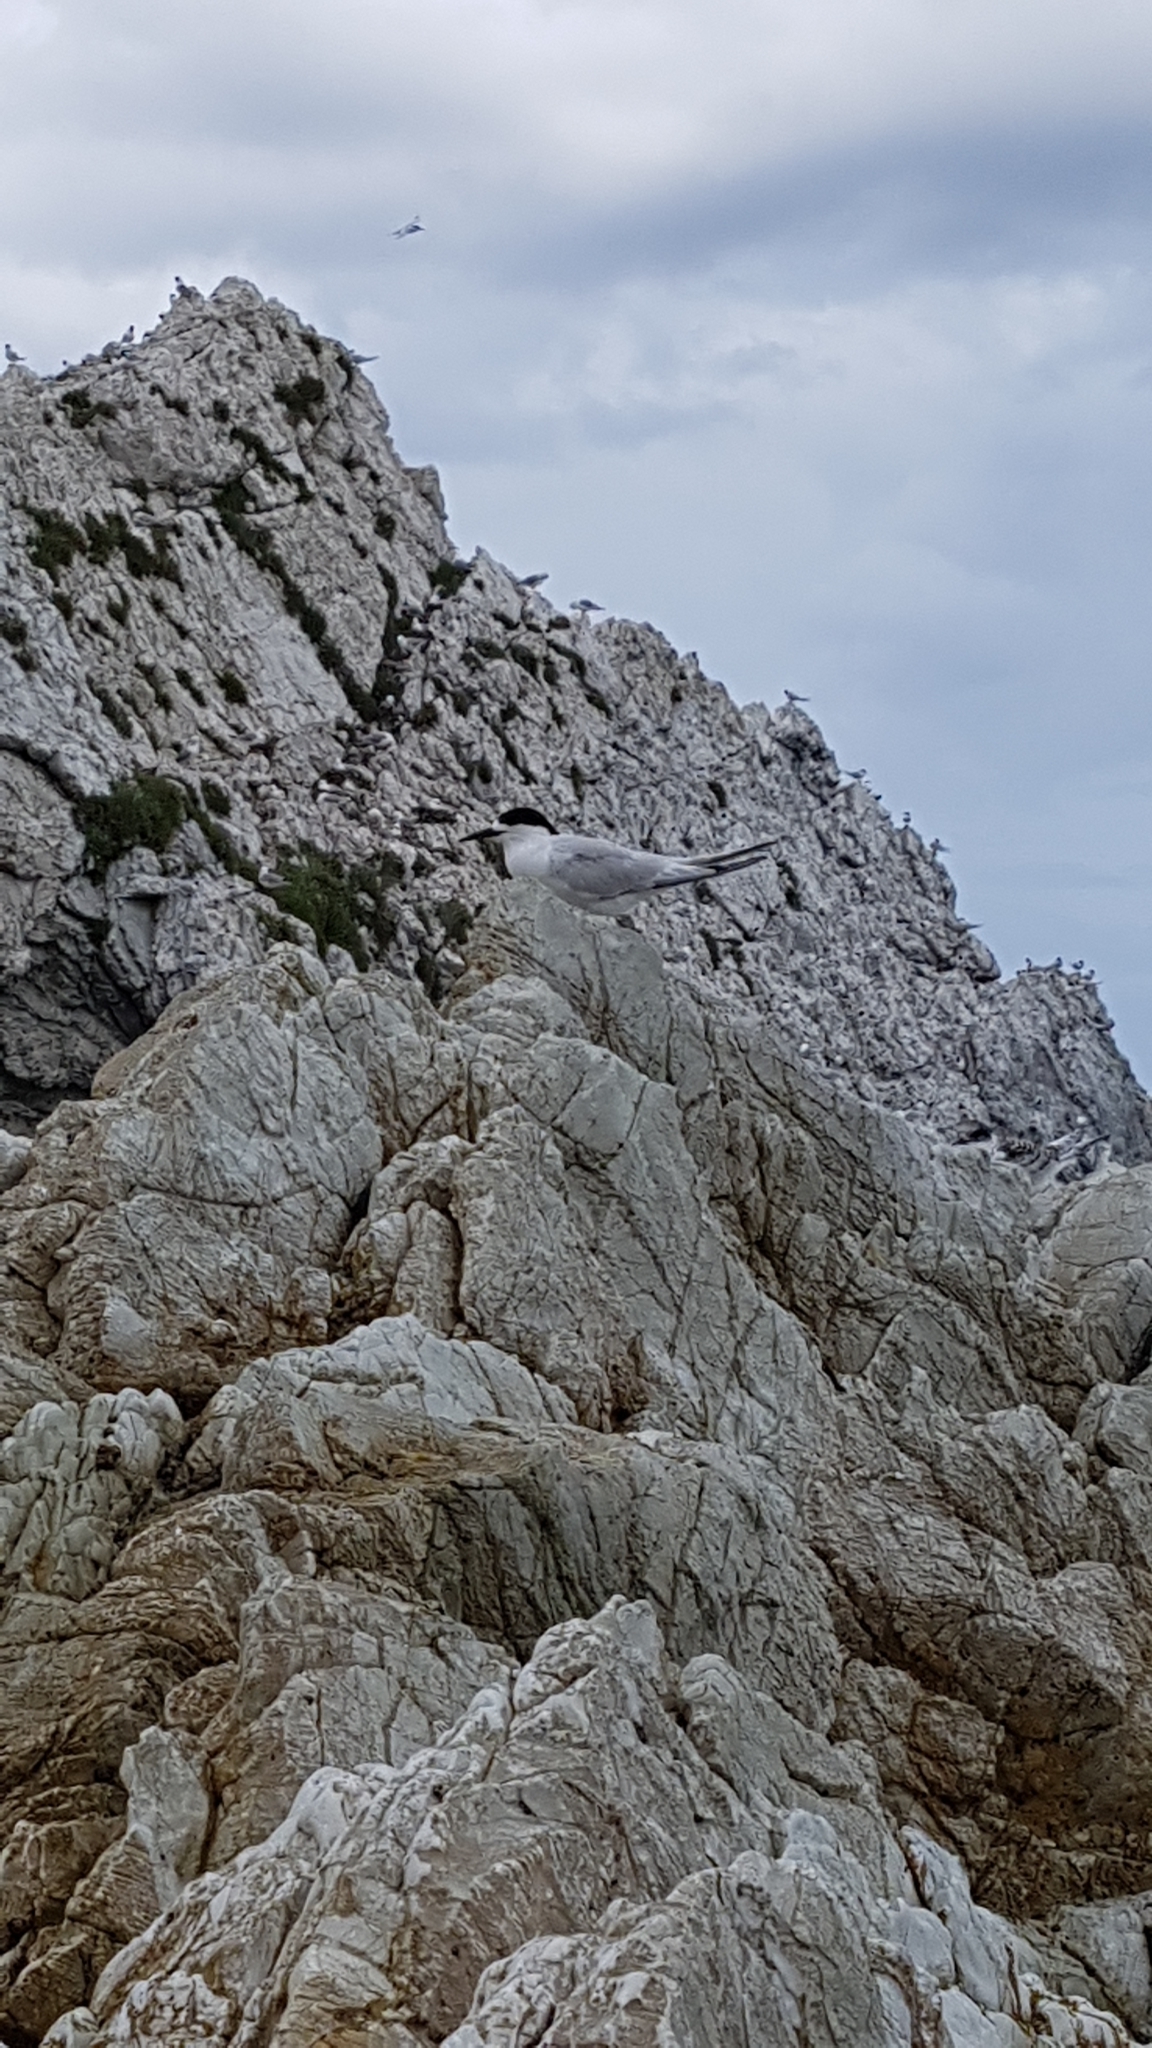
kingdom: Animalia
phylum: Chordata
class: Aves
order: Charadriiformes
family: Laridae
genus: Sterna
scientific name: Sterna striata
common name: White-fronted tern
